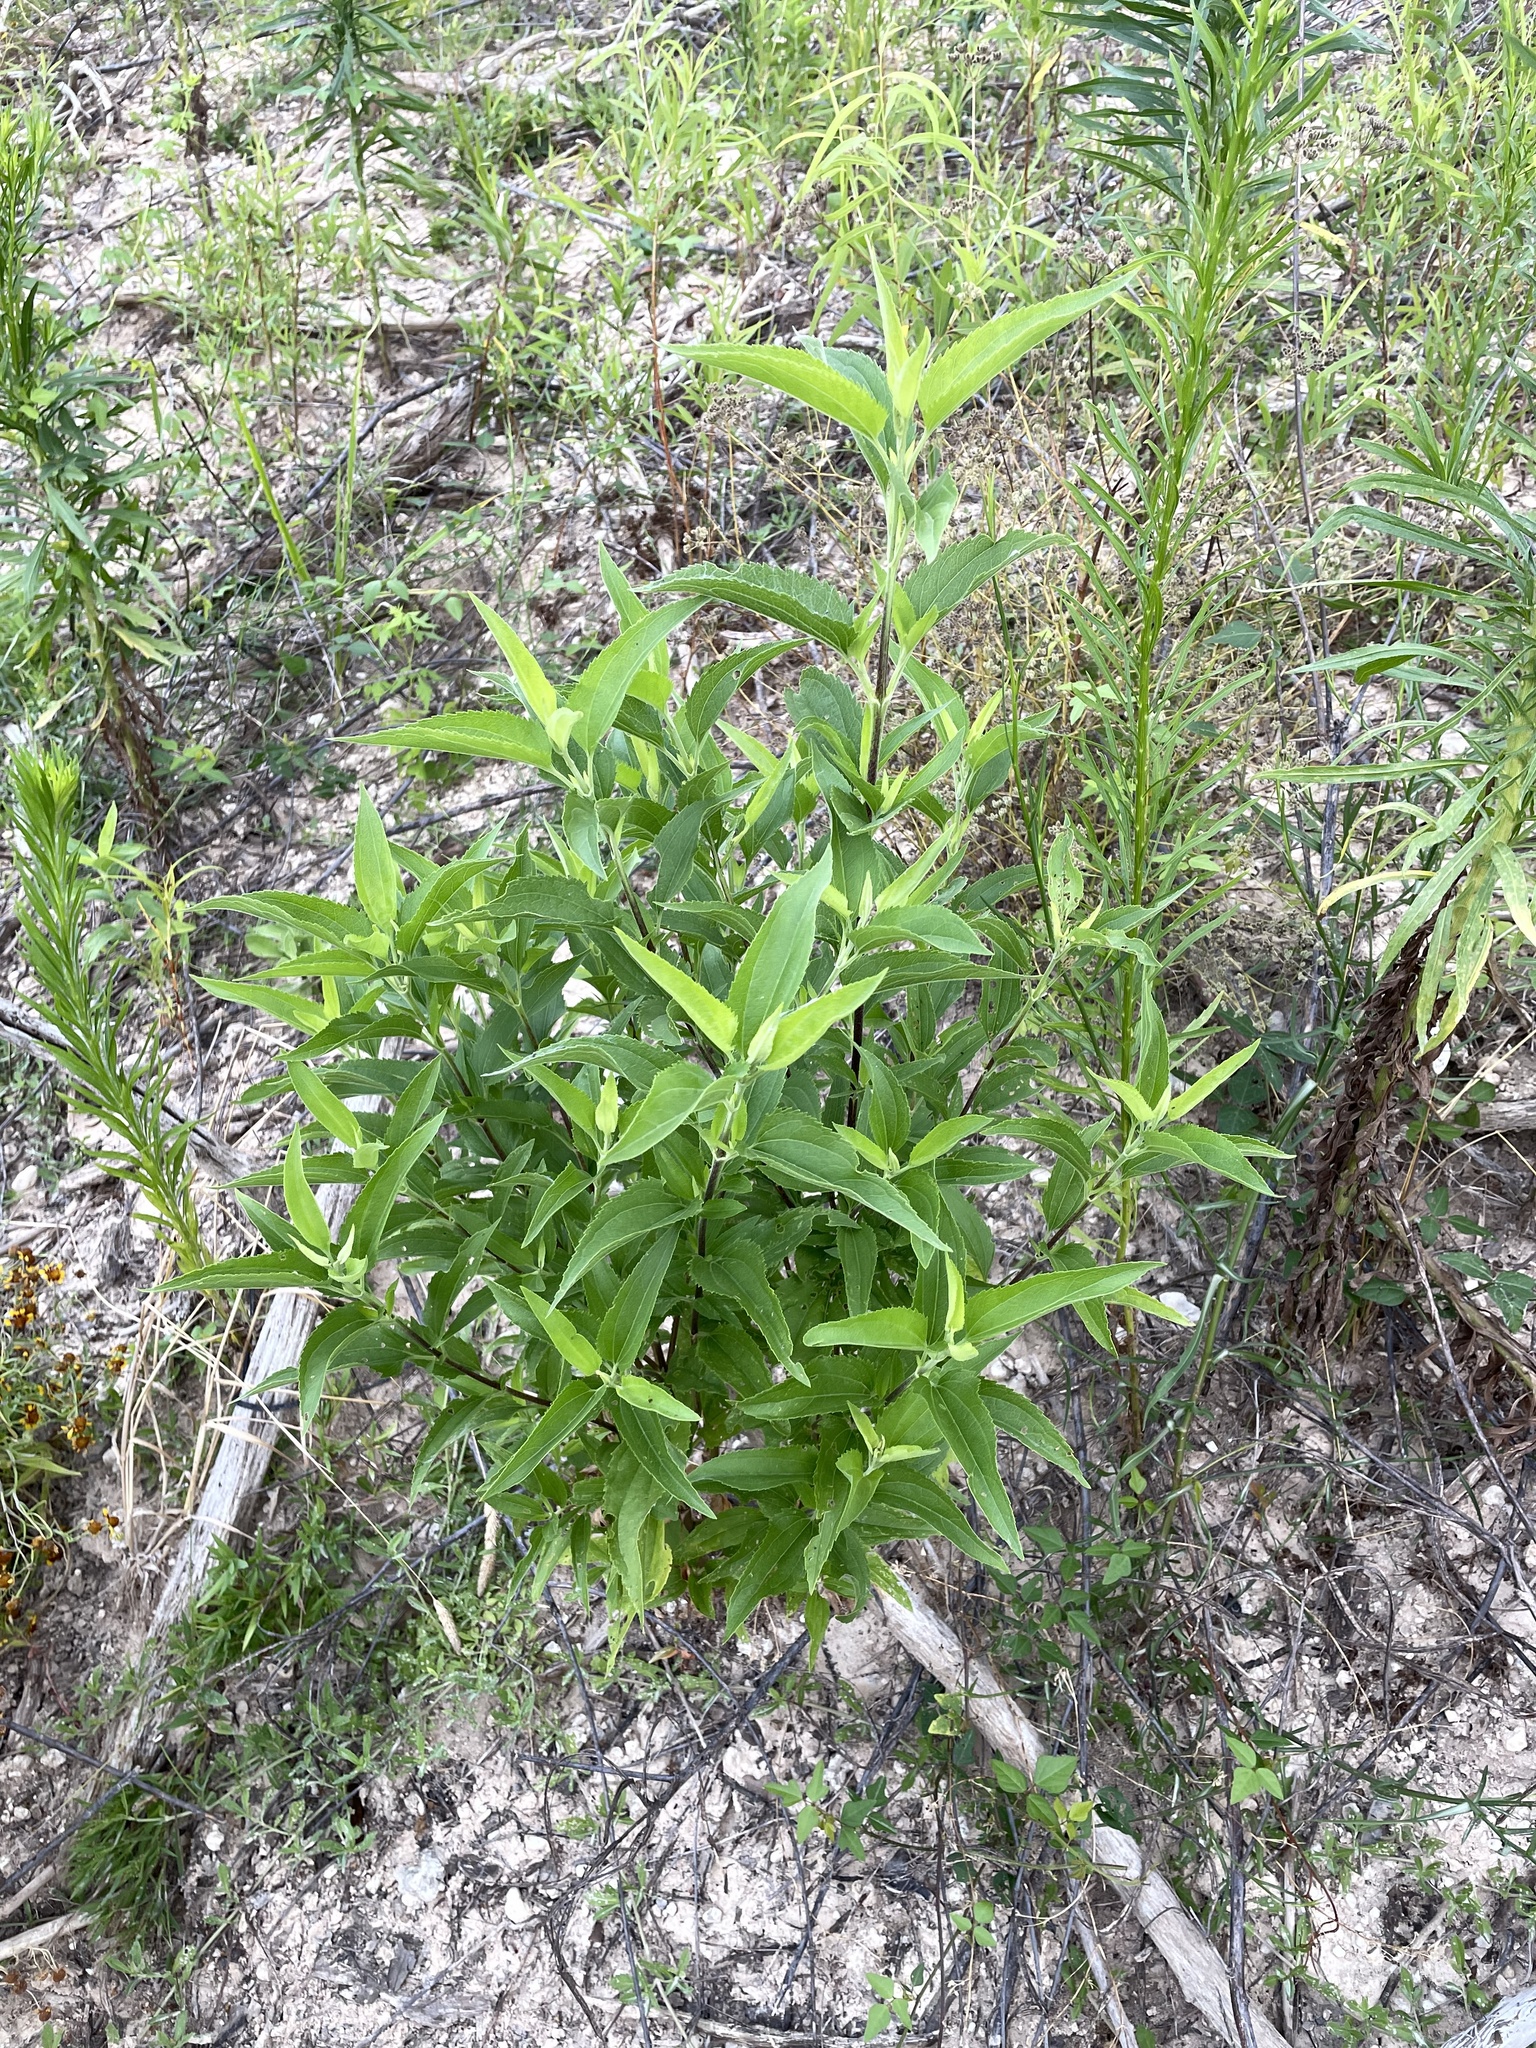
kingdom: Plantae
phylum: Tracheophyta
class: Magnoliopsida
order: Asterales
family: Asteraceae
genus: Eupatorium
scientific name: Eupatorium serotinum
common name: Late boneset
